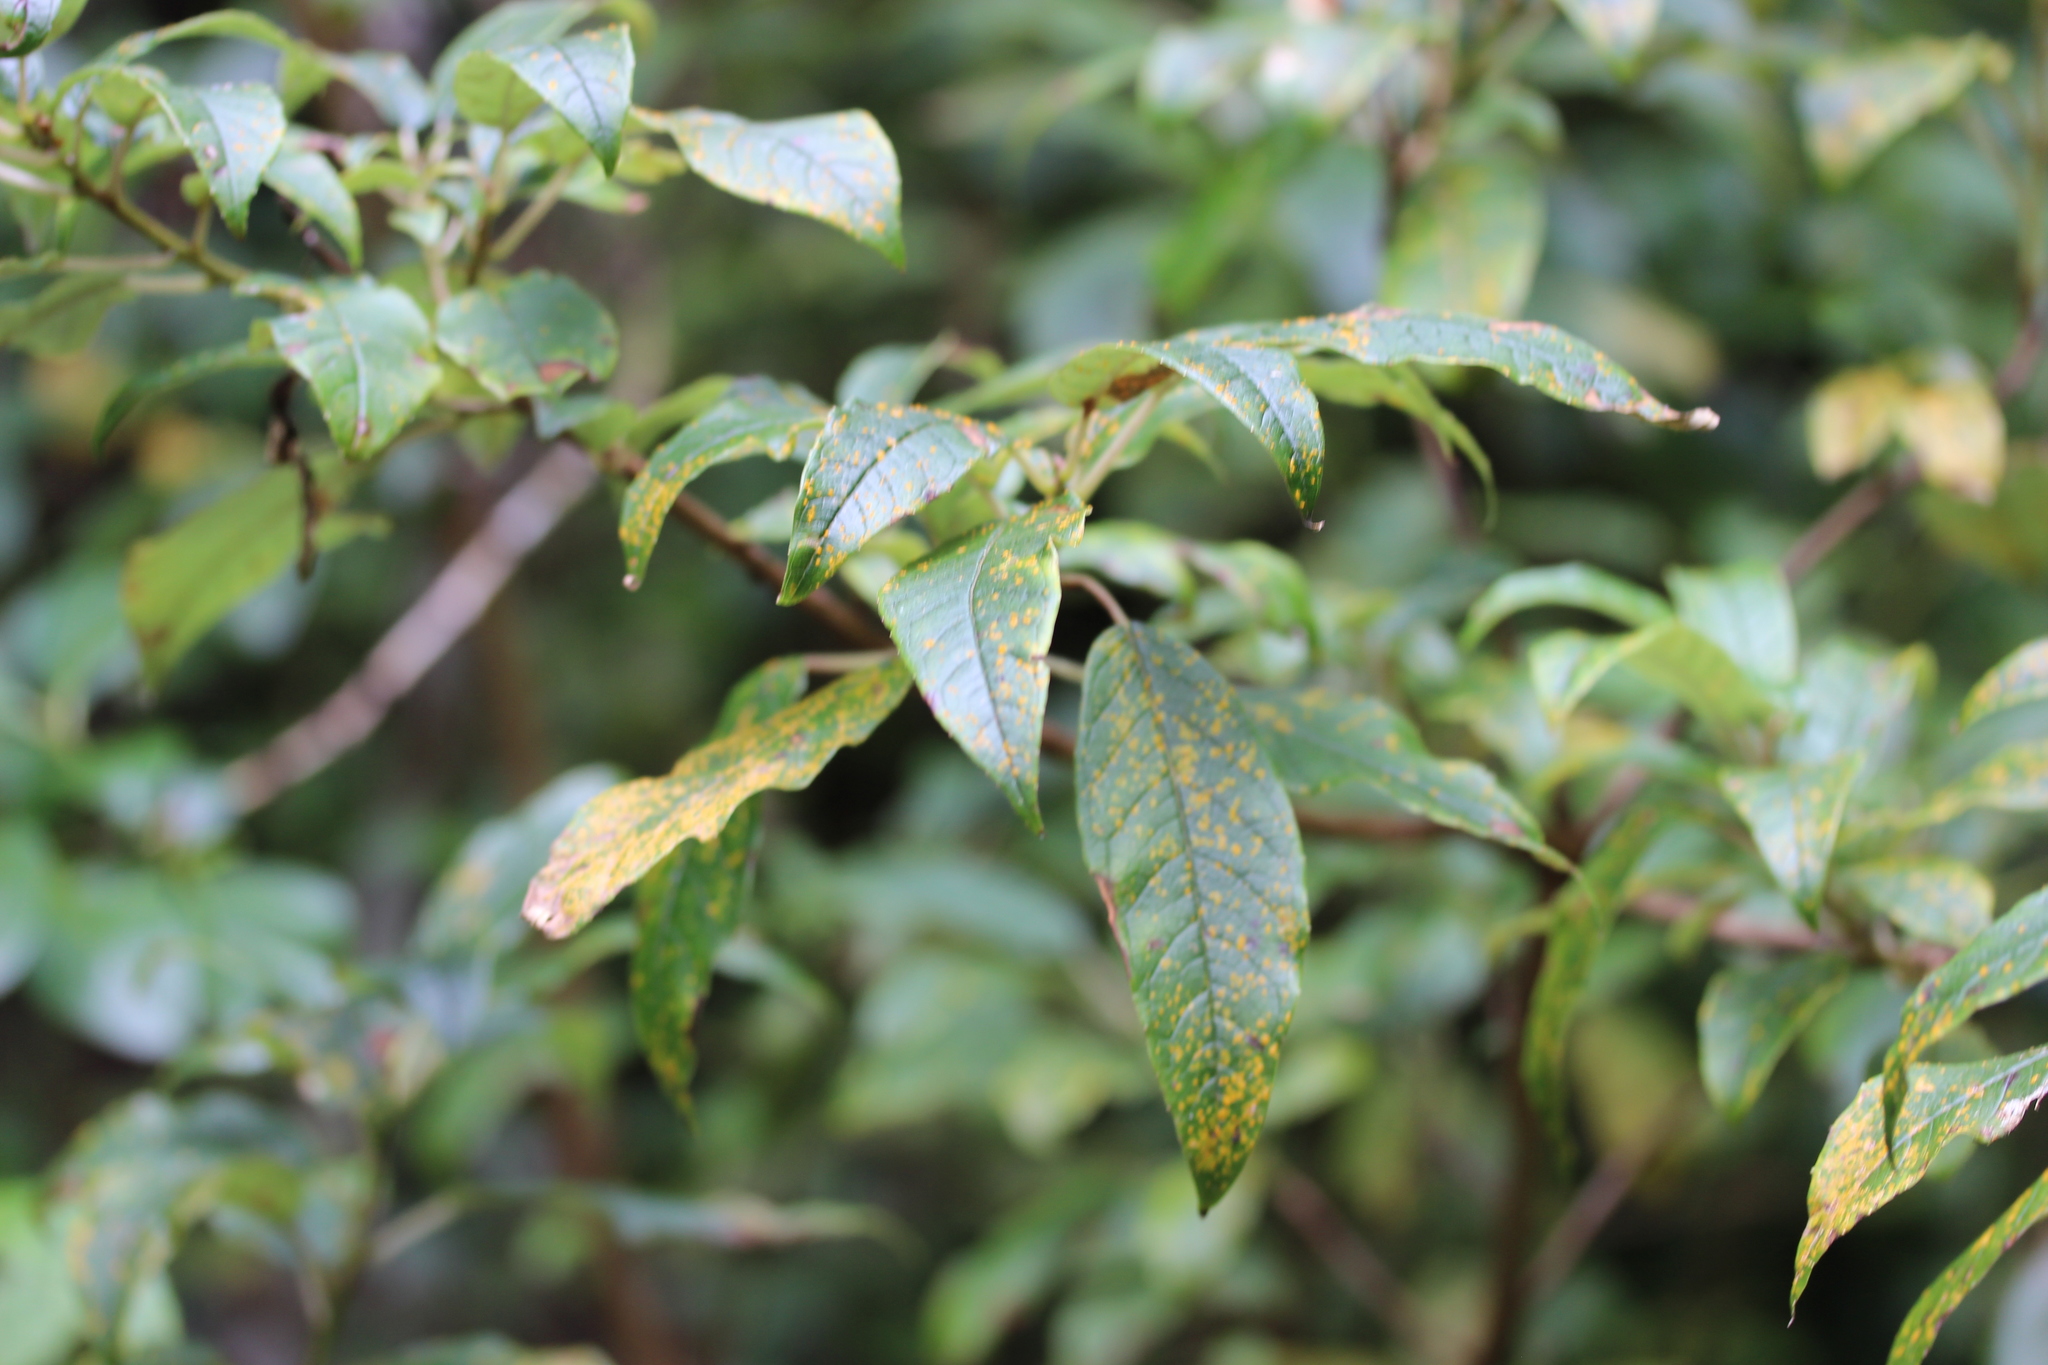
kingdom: Fungi
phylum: Basidiomycota
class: Pucciniomycetes
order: Pucciniales
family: Mikronegeriaceae
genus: Mikronegeria
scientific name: Mikronegeria fuchsiae
